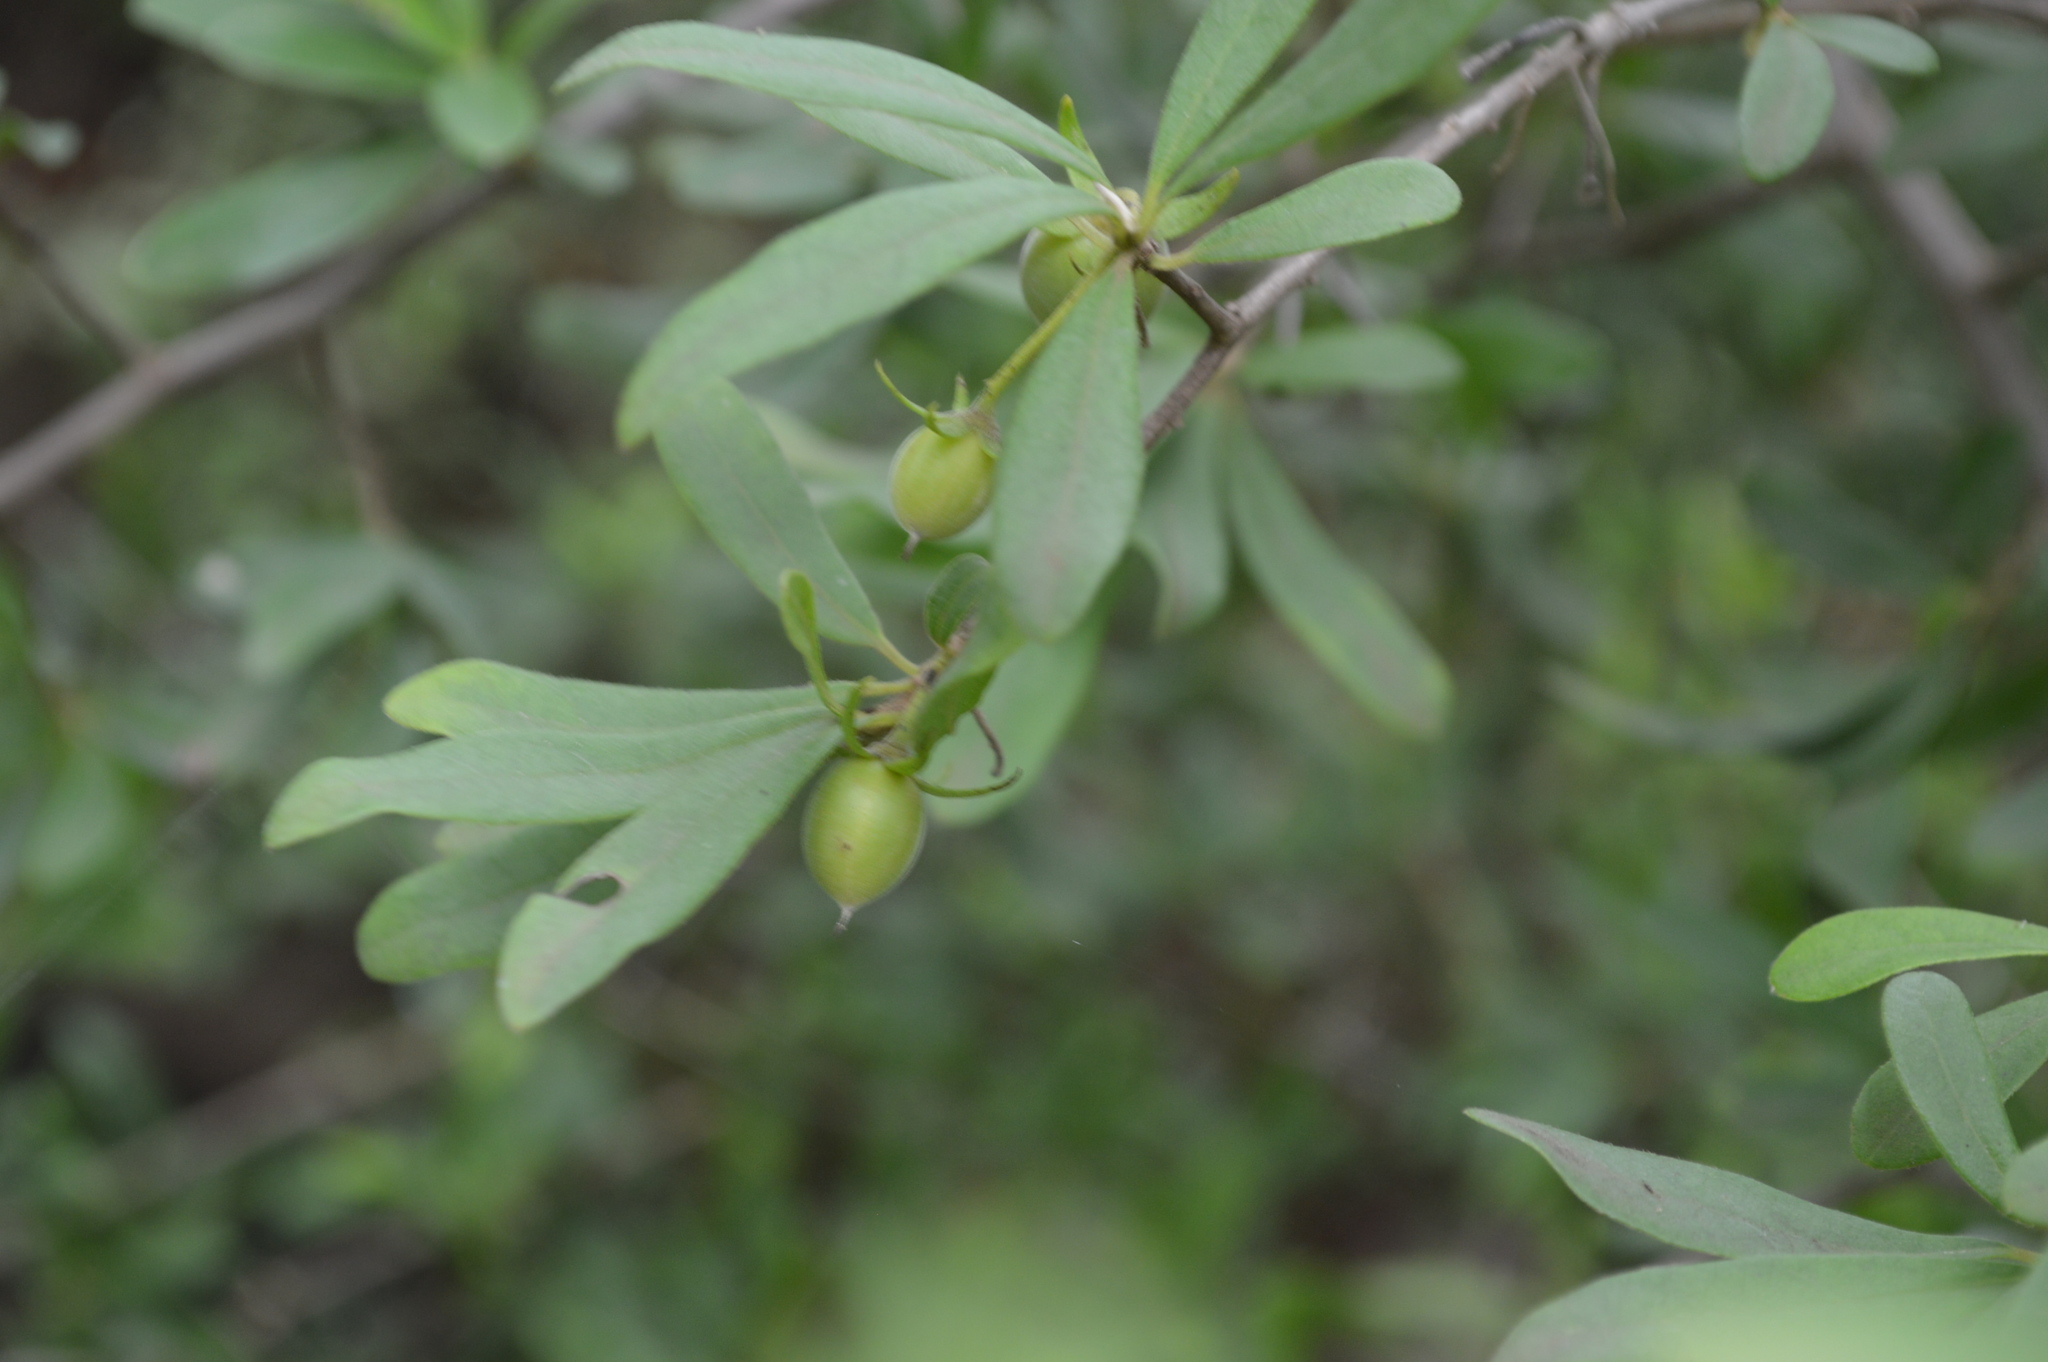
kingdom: Plantae
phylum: Tracheophyta
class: Magnoliopsida
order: Ericales
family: Ebenaceae
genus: Diospyros
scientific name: Diospyros lycioides
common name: Red star apple
